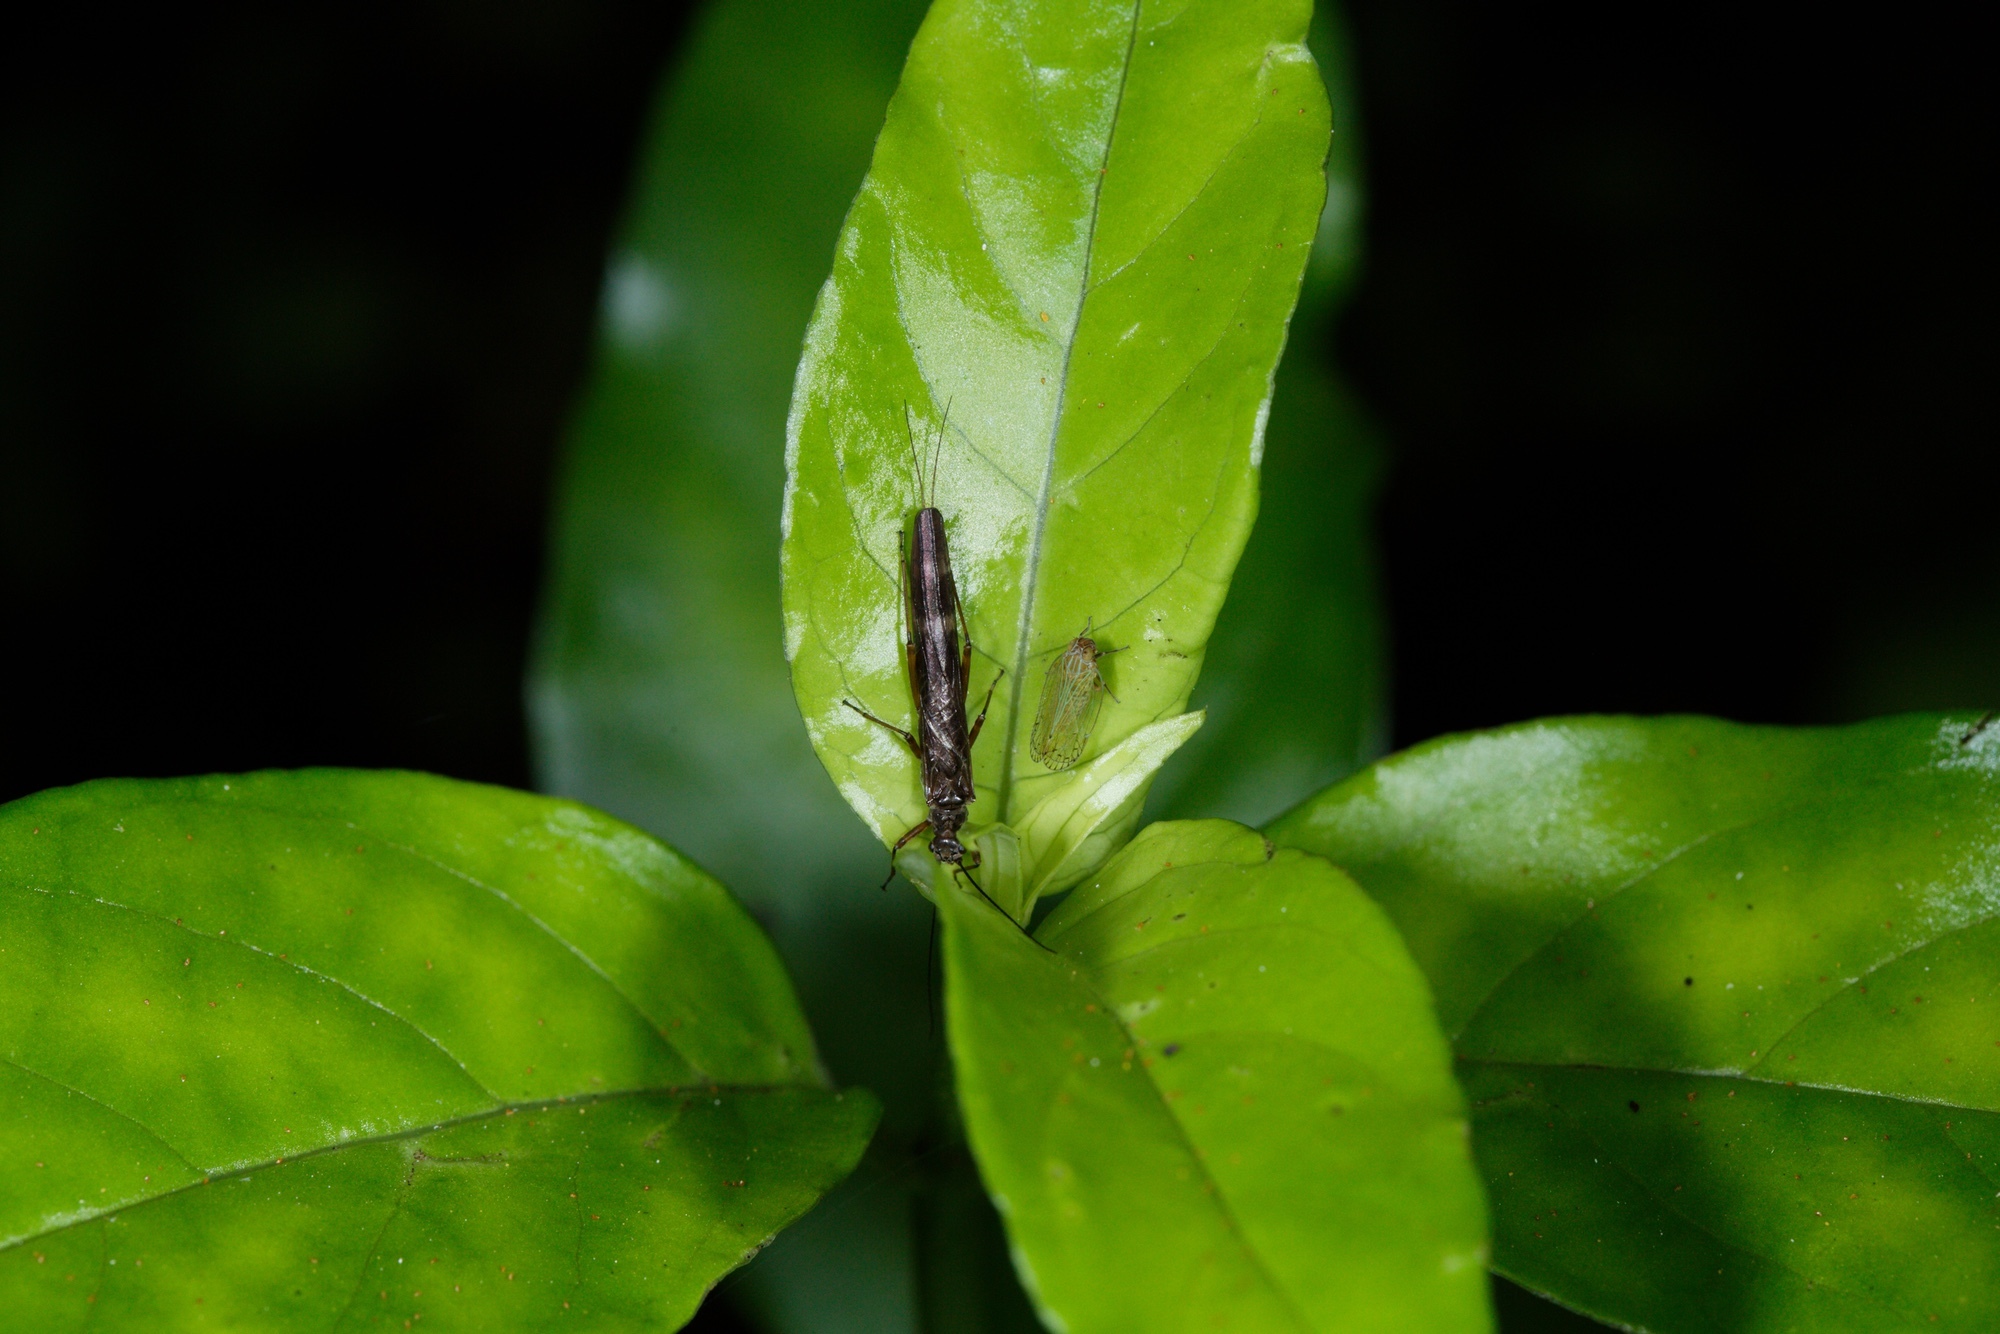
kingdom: Animalia
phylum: Arthropoda
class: Insecta
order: Plecoptera
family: Gripopterygidae
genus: Acroperla
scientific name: Acroperla trivacuata
